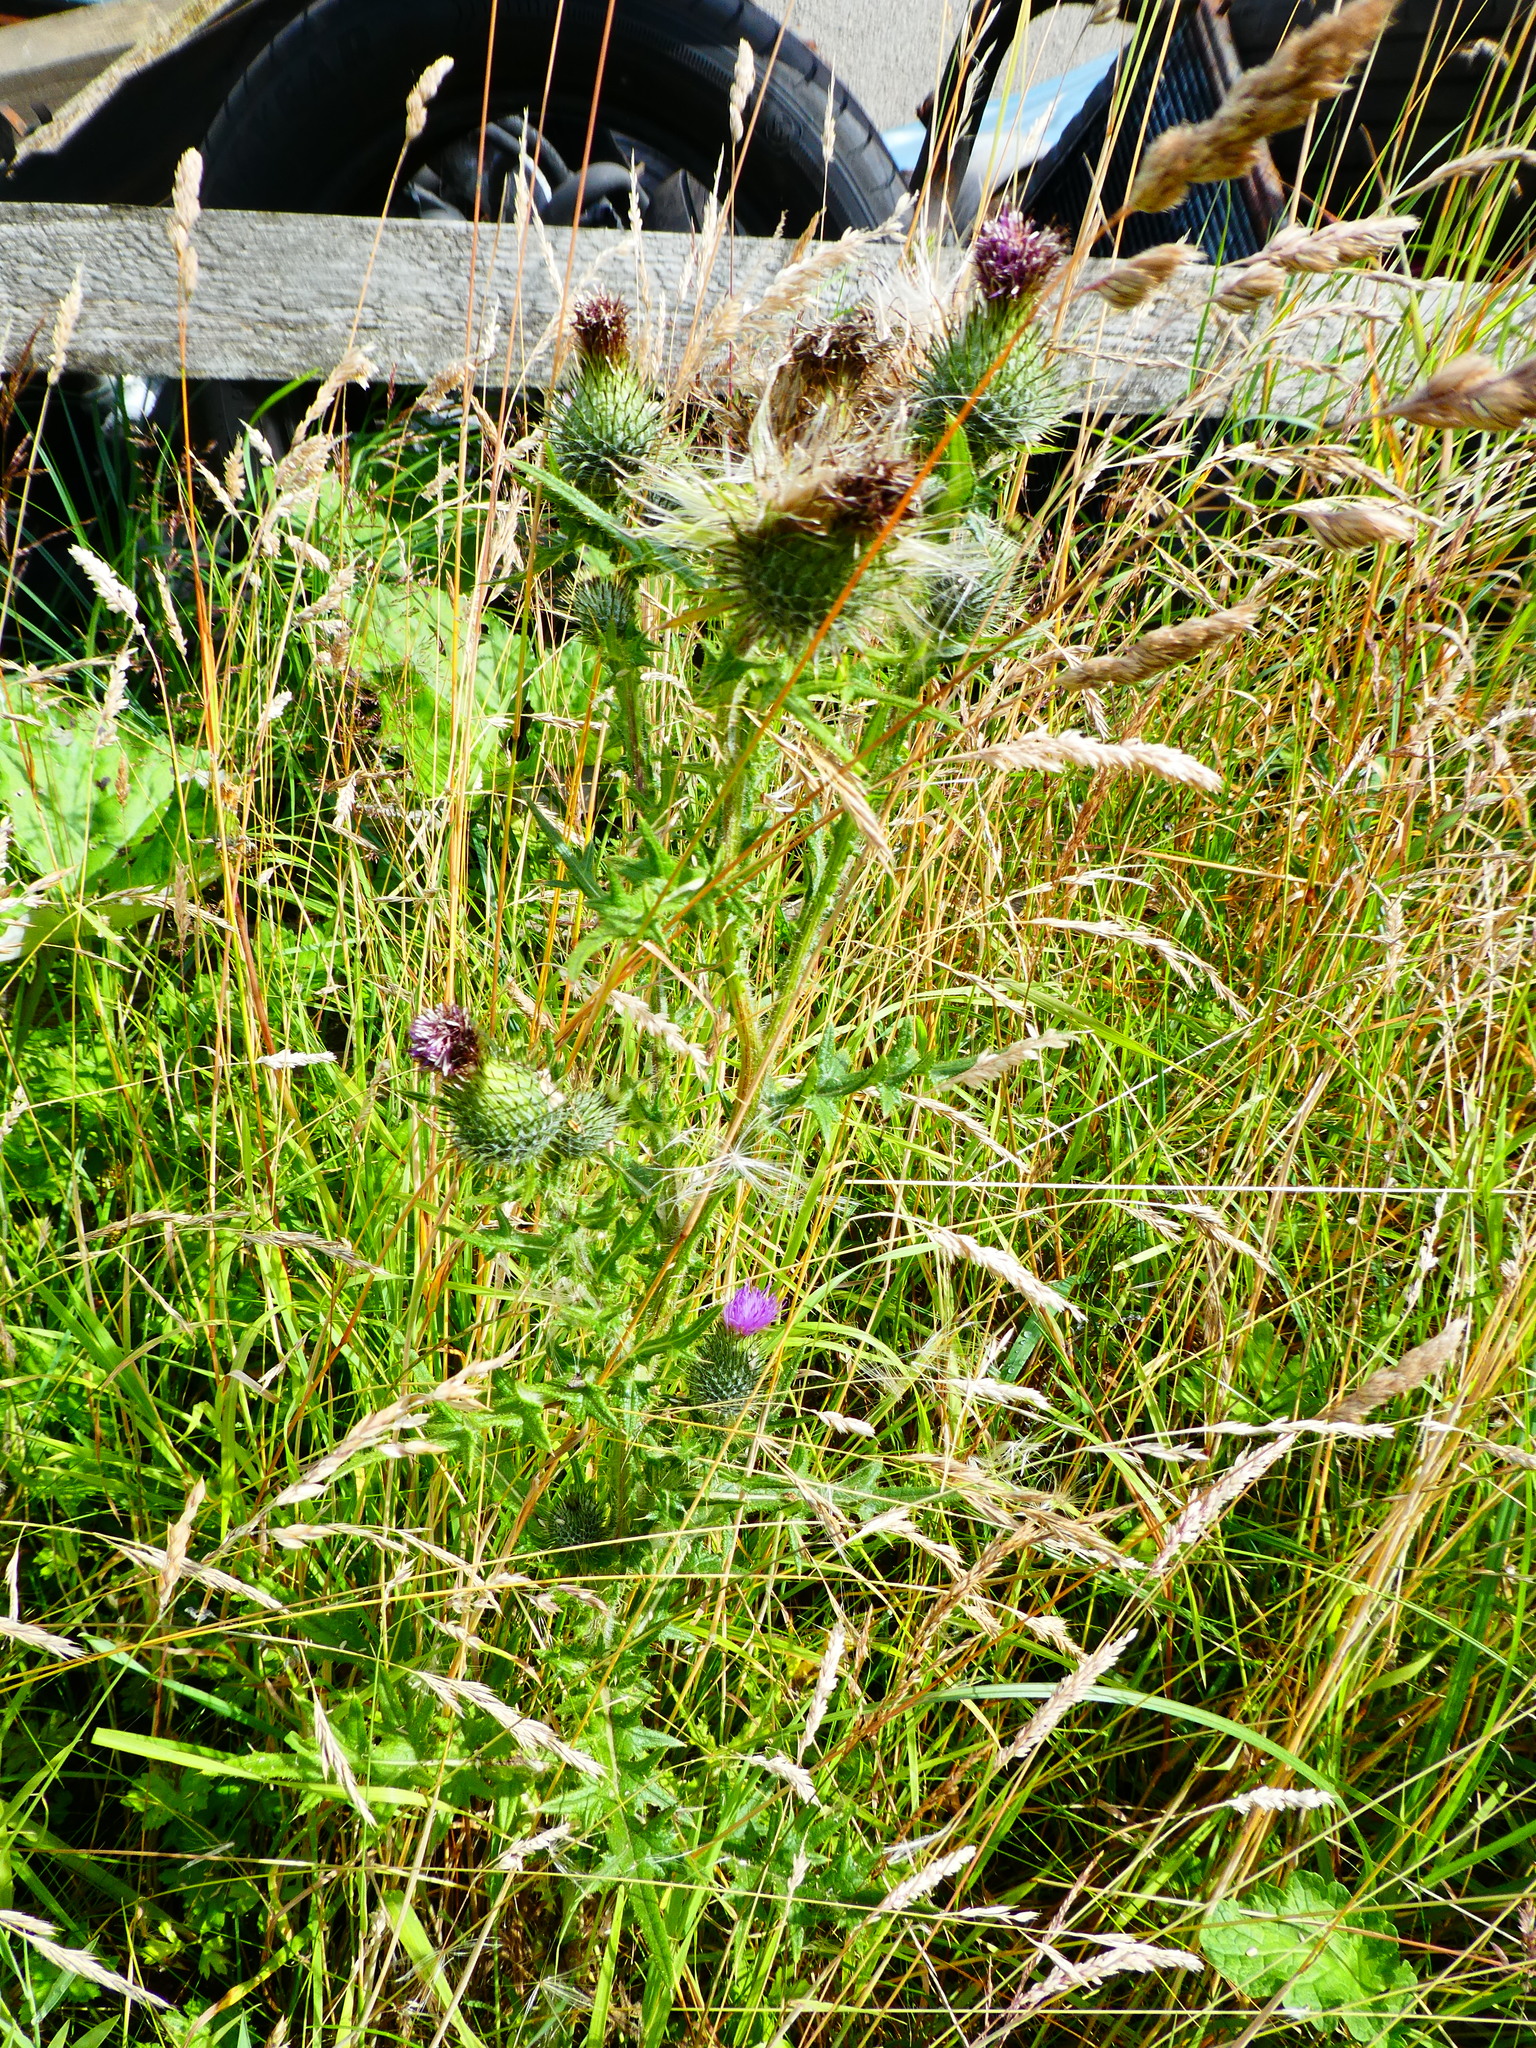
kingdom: Plantae
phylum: Tracheophyta
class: Magnoliopsida
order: Asterales
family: Asteraceae
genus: Cirsium
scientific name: Cirsium vulgare
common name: Bull thistle
